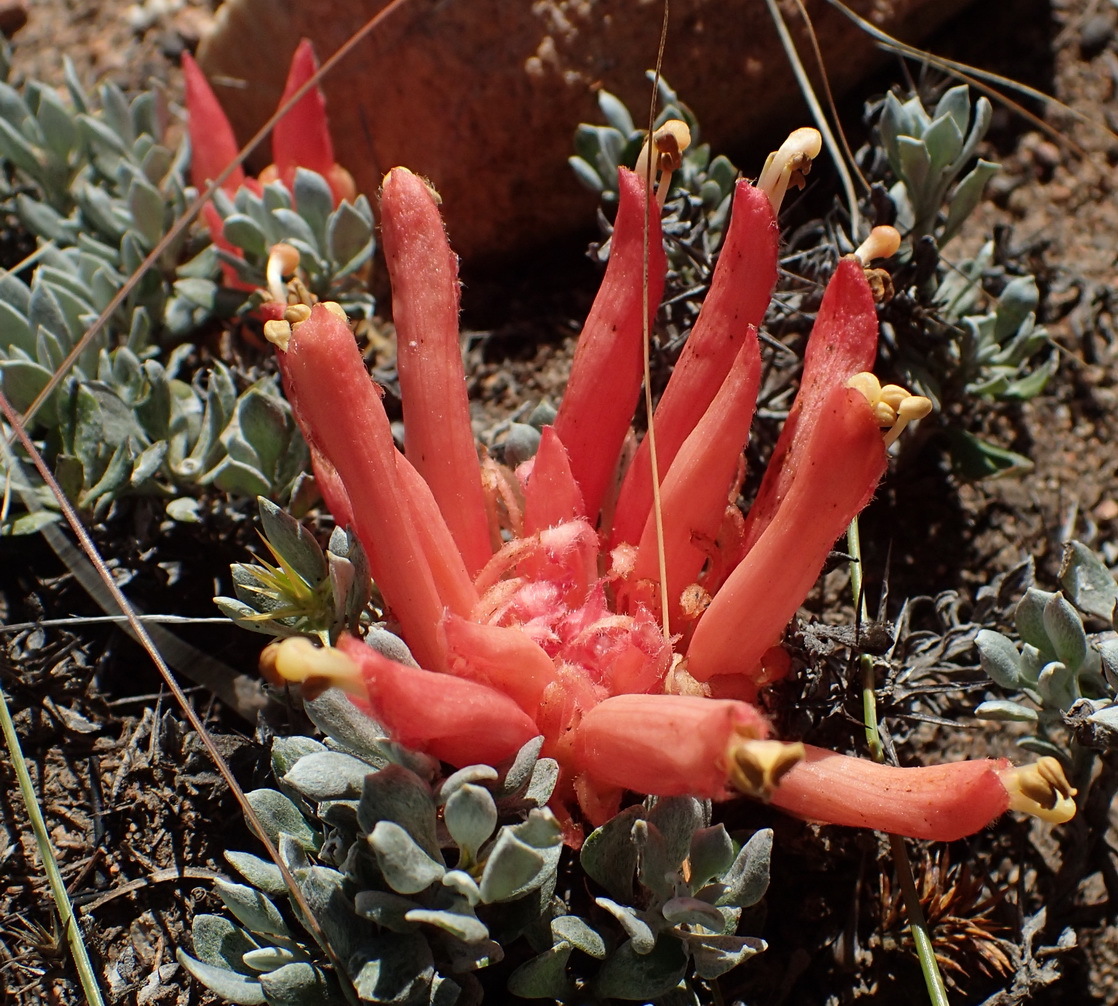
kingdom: Plantae
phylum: Tracheophyta
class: Magnoliopsida
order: Lamiales
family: Orobanchaceae
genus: Hyobanche
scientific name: Hyobanche glabrata
